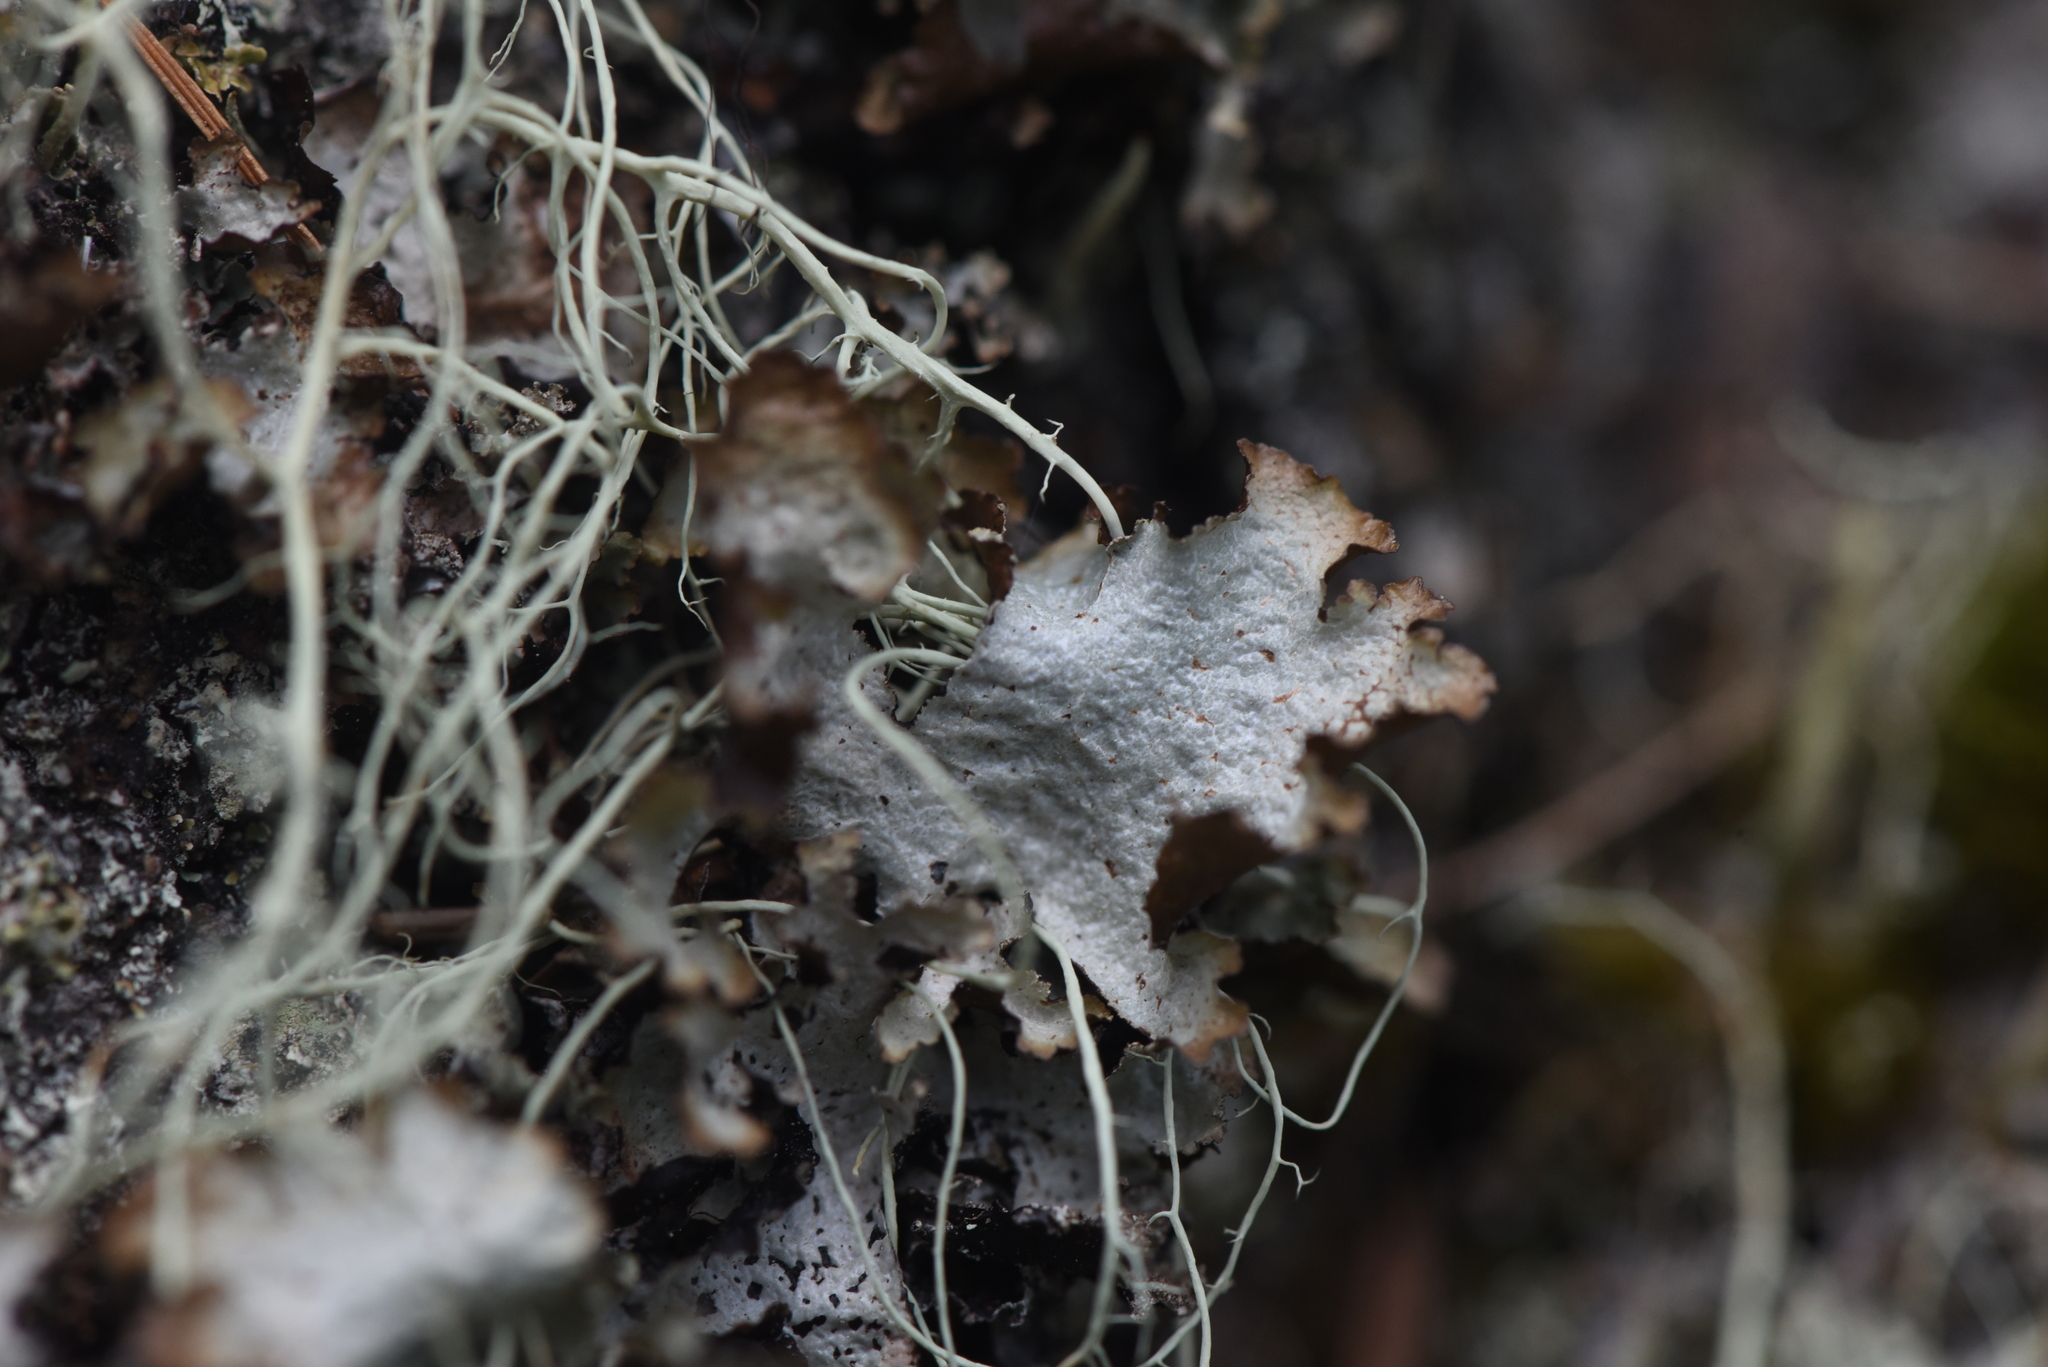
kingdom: Fungi
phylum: Ascomycota
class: Lecanoromycetes
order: Lecanorales
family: Parmeliaceae
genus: Platismatia
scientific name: Platismatia glauca
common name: Varied rag lichen
